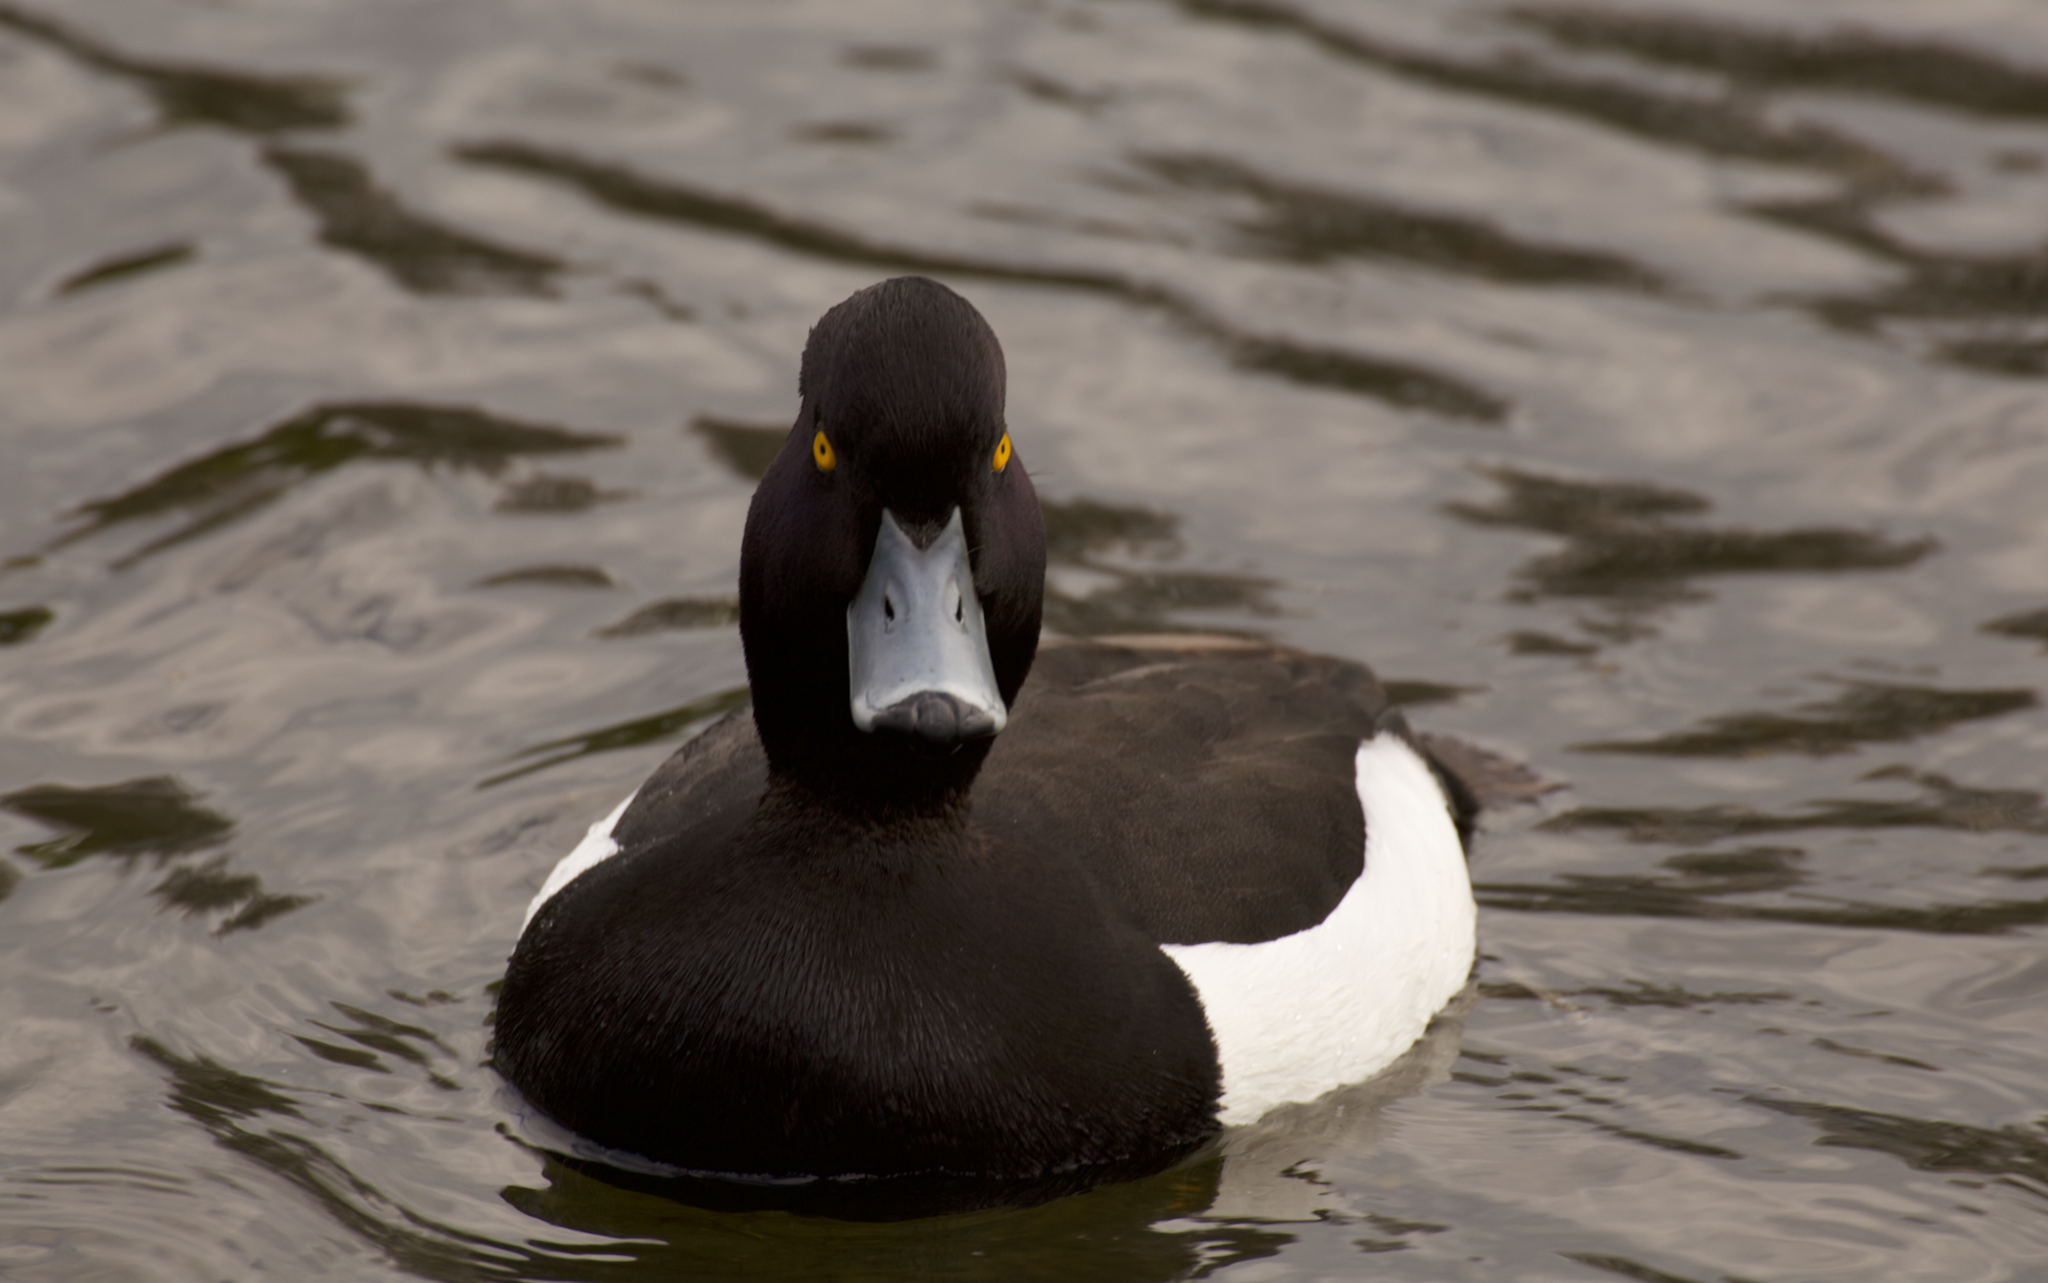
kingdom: Animalia
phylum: Chordata
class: Aves
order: Anseriformes
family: Anatidae
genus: Aythya
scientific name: Aythya fuligula
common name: Tufted duck
